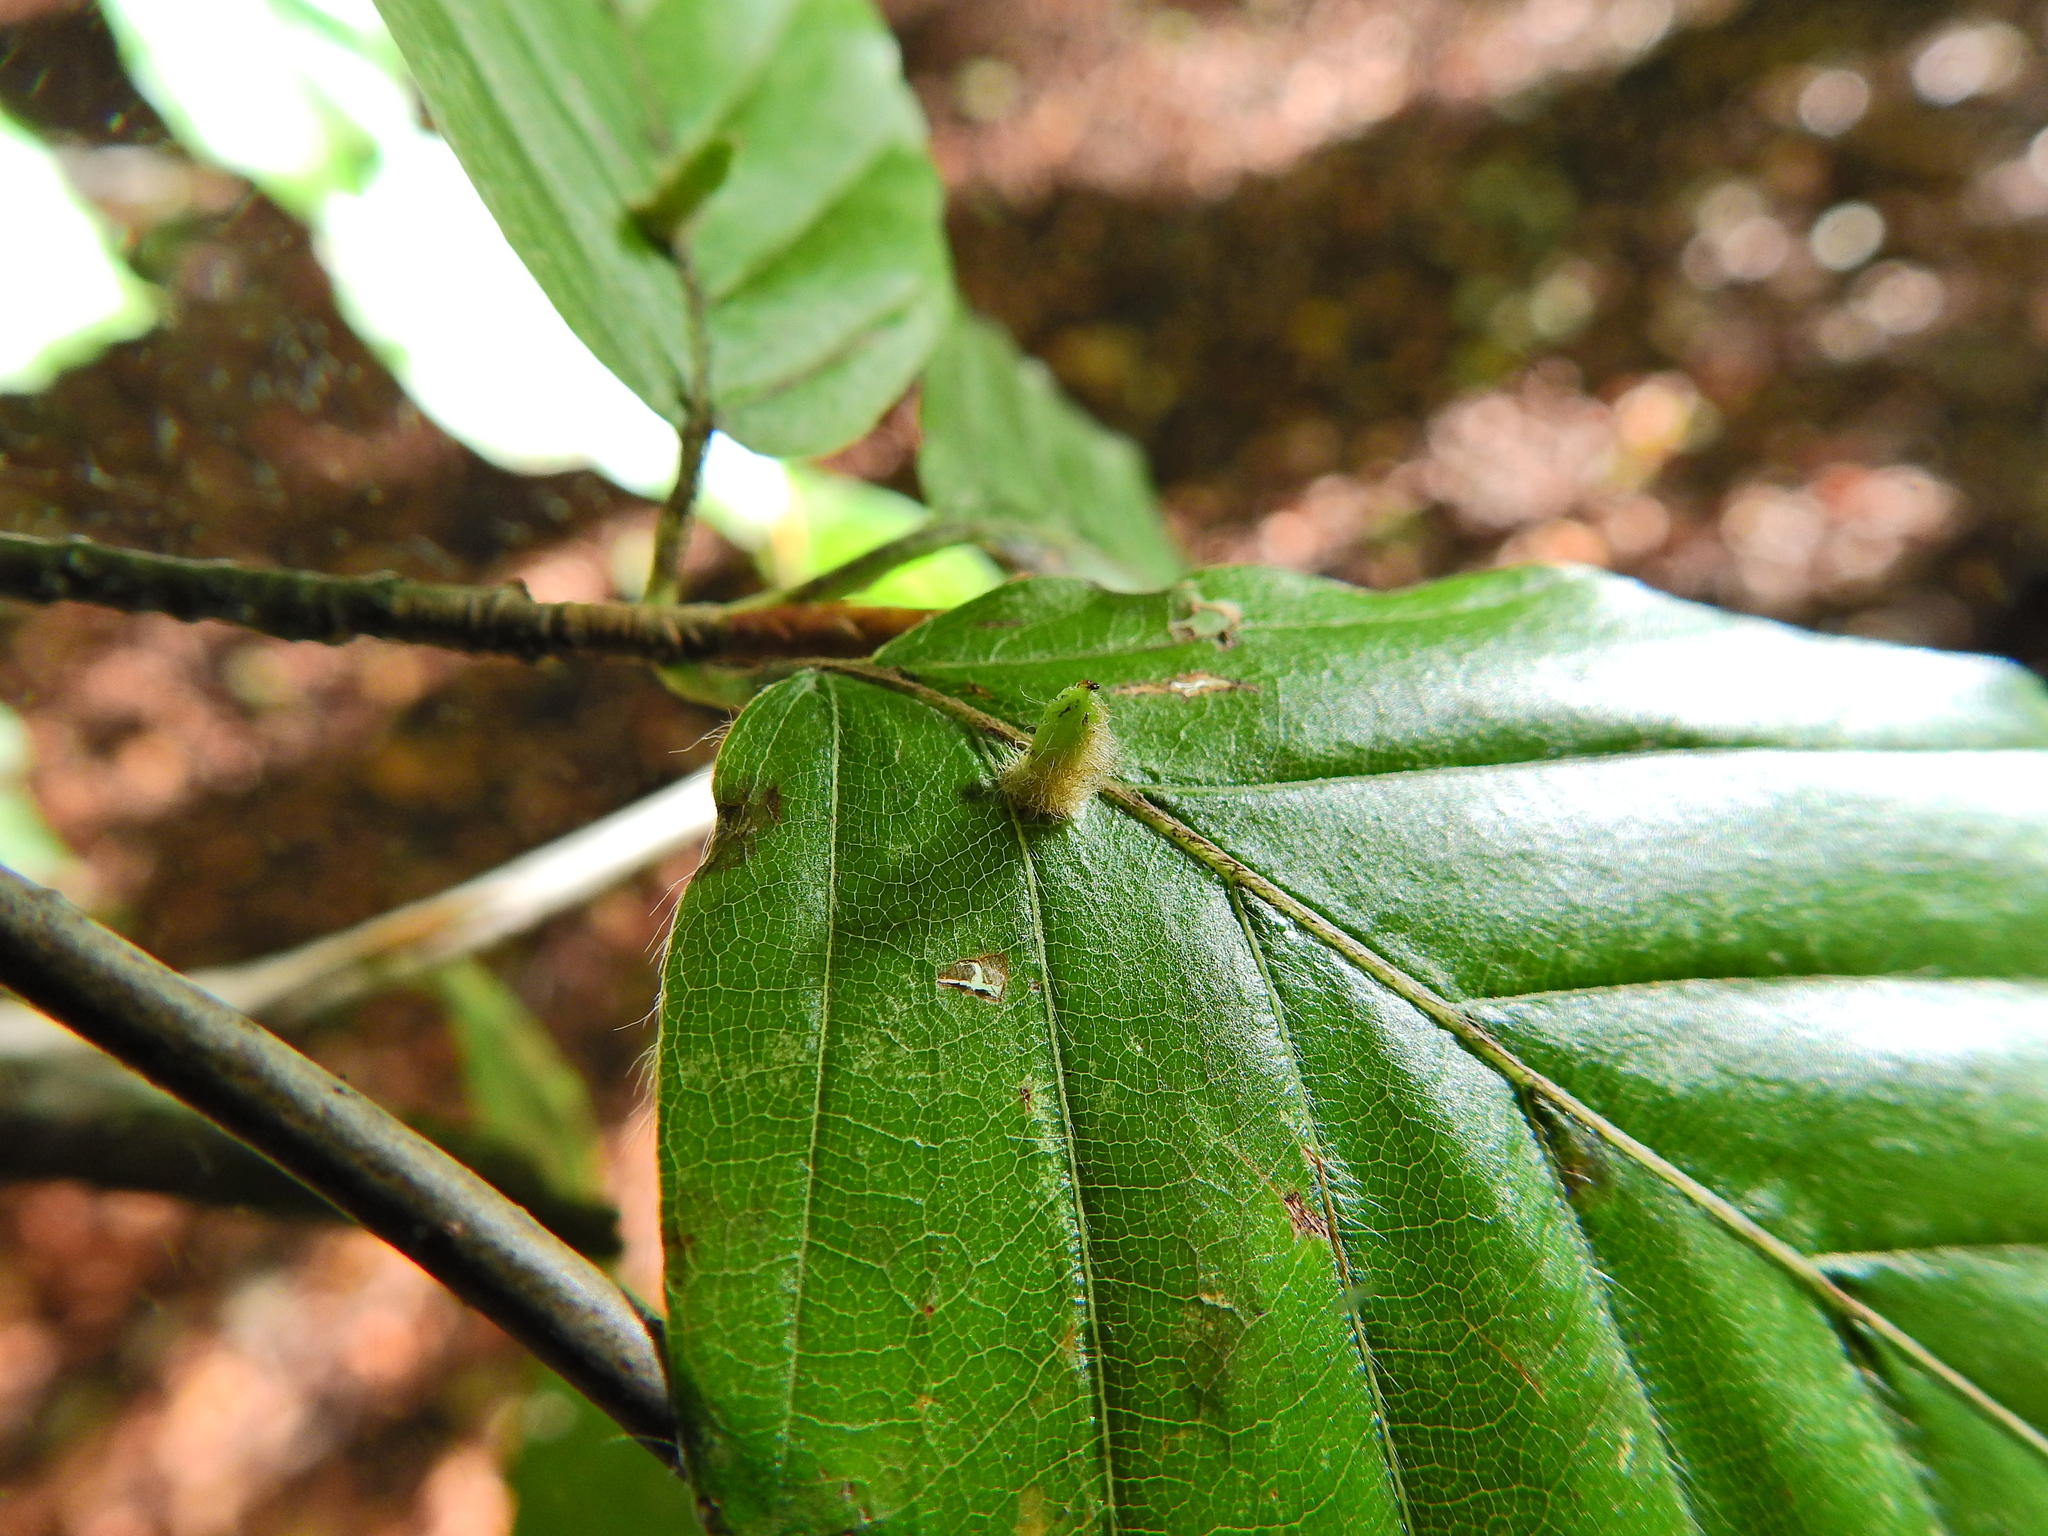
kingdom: Animalia
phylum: Arthropoda
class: Insecta
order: Diptera
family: Cecidomyiidae
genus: Hartigiola
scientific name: Hartigiola annulipes
